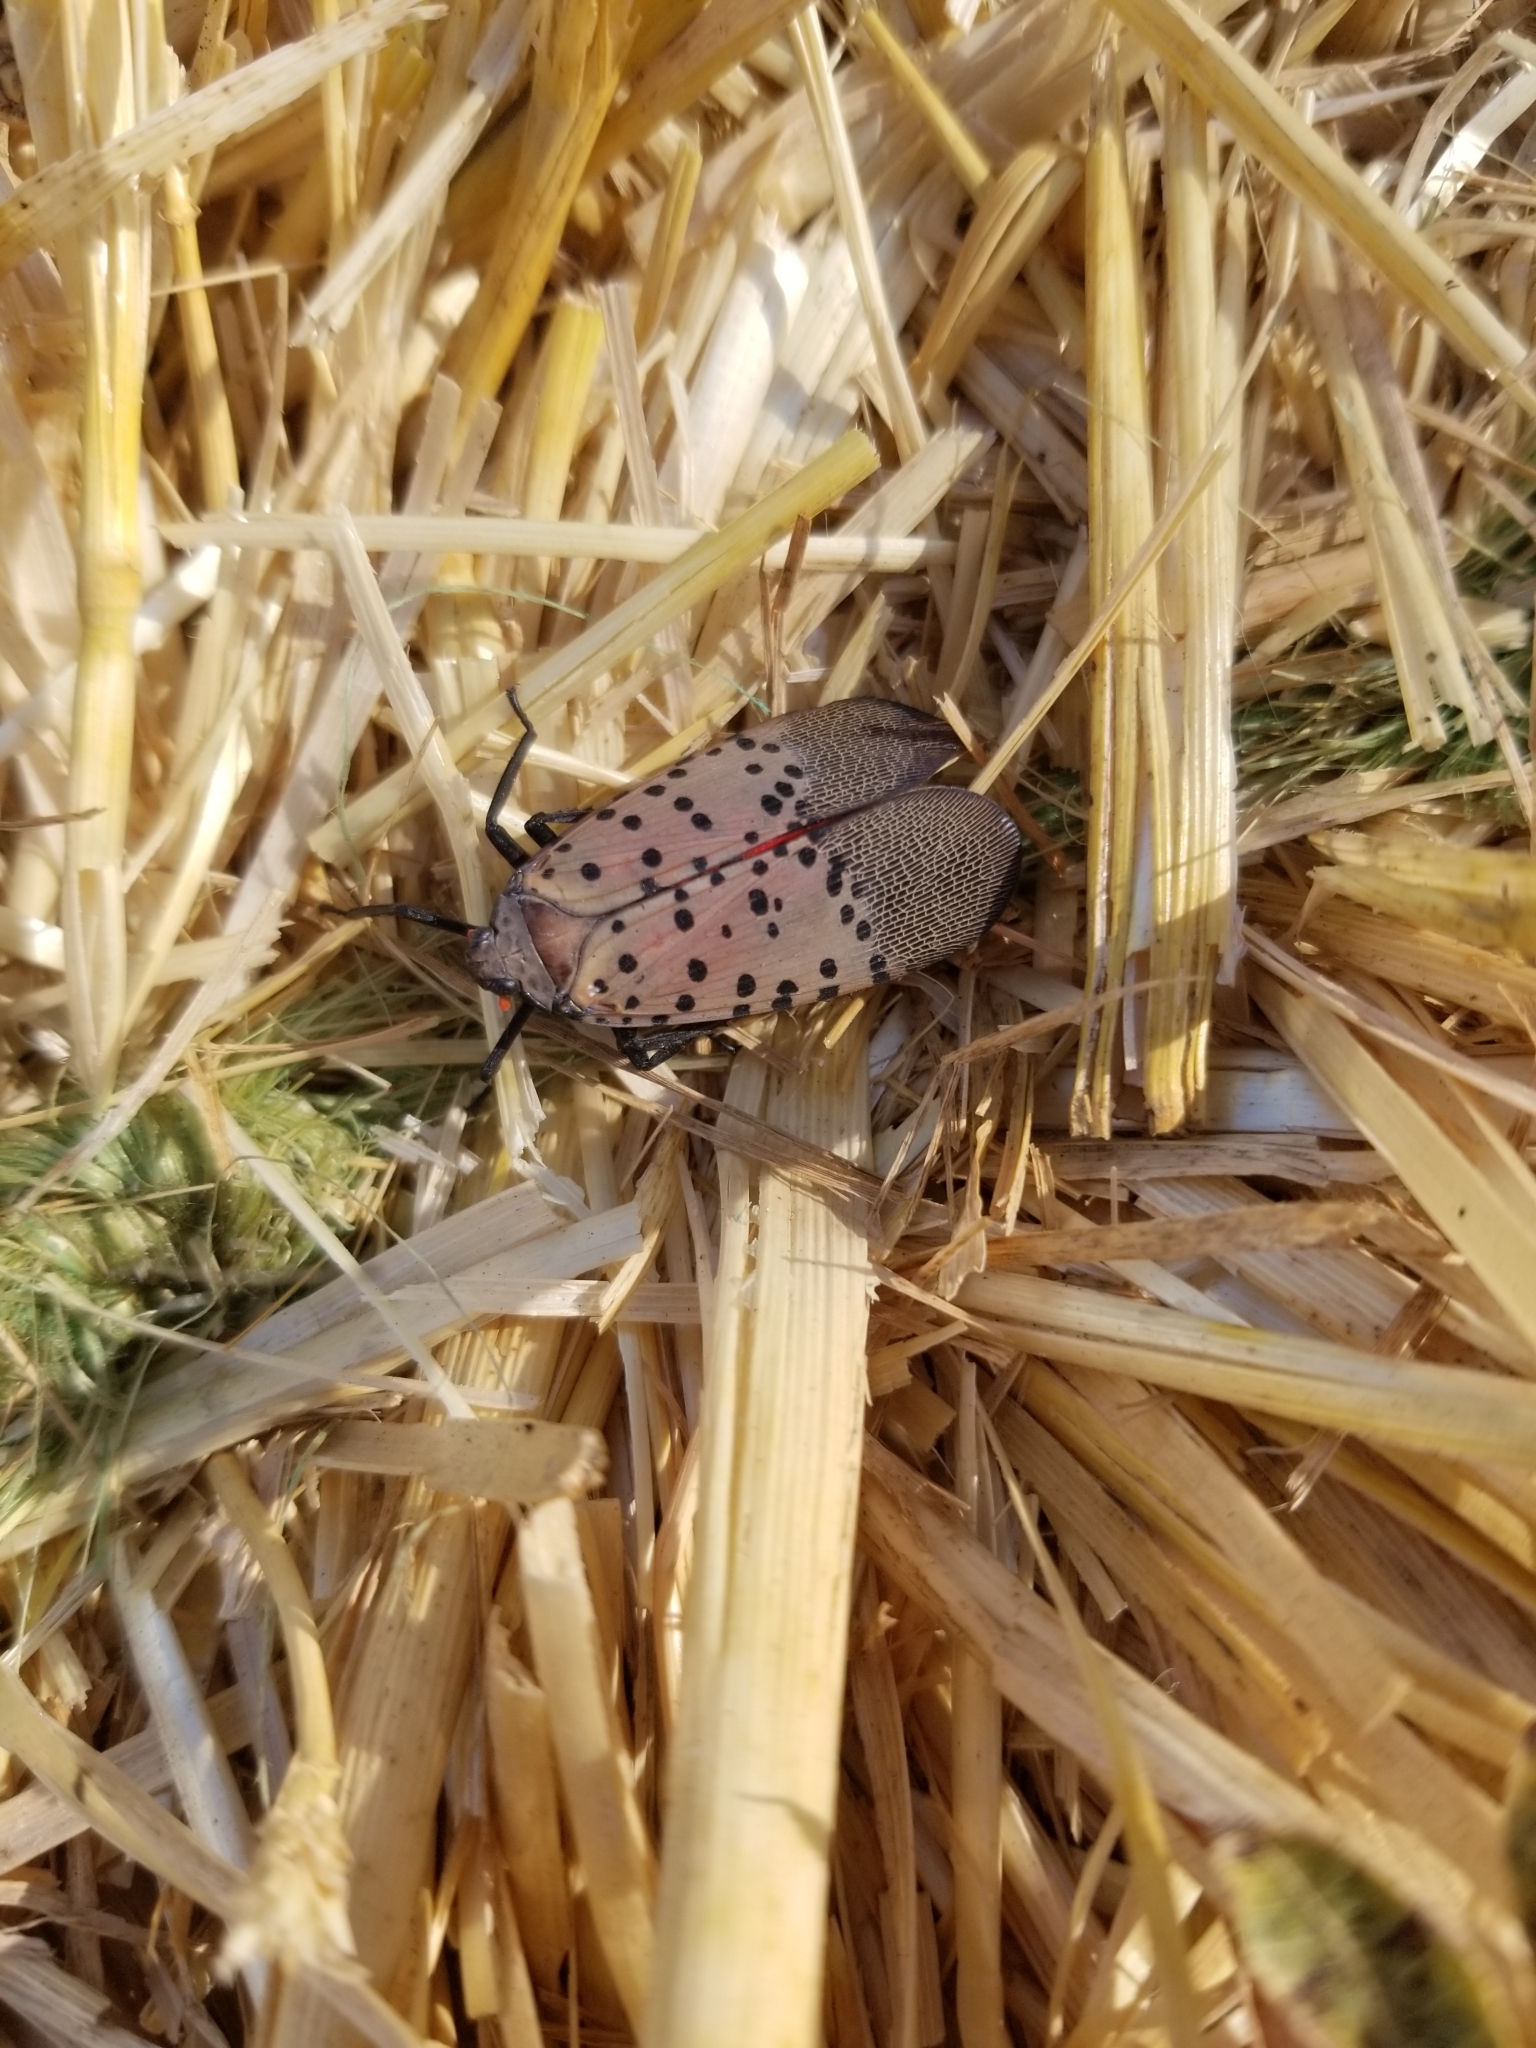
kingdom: Animalia
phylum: Arthropoda
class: Insecta
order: Hemiptera
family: Fulgoridae
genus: Lycorma
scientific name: Lycorma delicatula
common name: Spotted lanternfly
